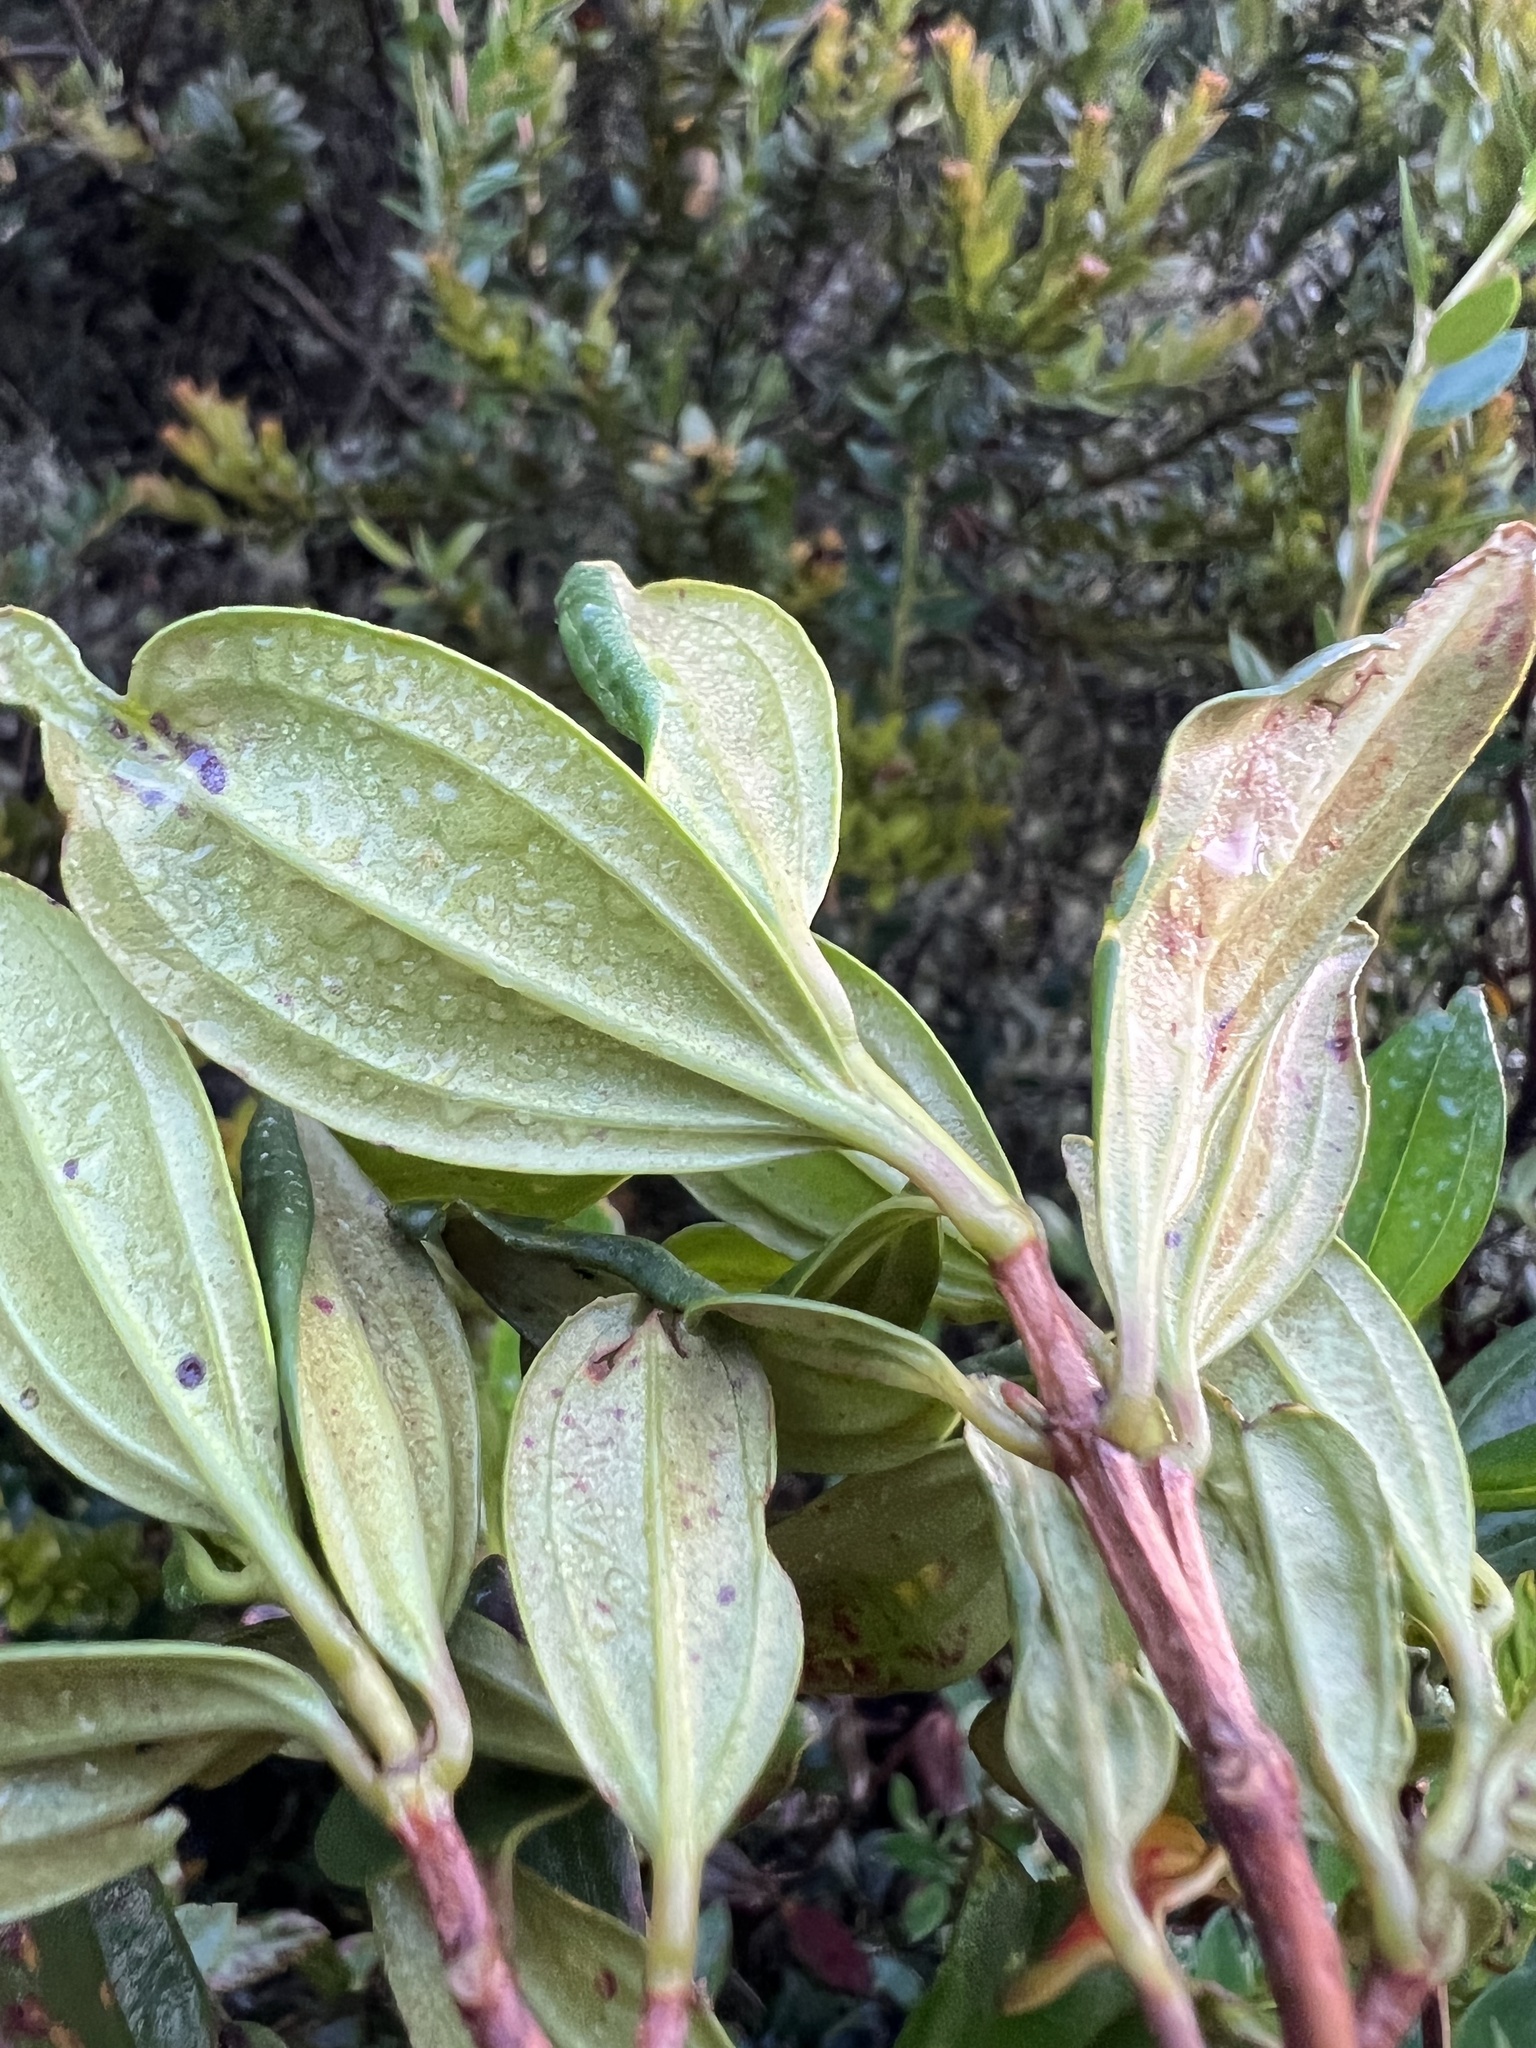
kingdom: Plantae
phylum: Tracheophyta
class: Magnoliopsida
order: Myrtales
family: Melastomataceae
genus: Bucquetia
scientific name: Bucquetia glutinosa
